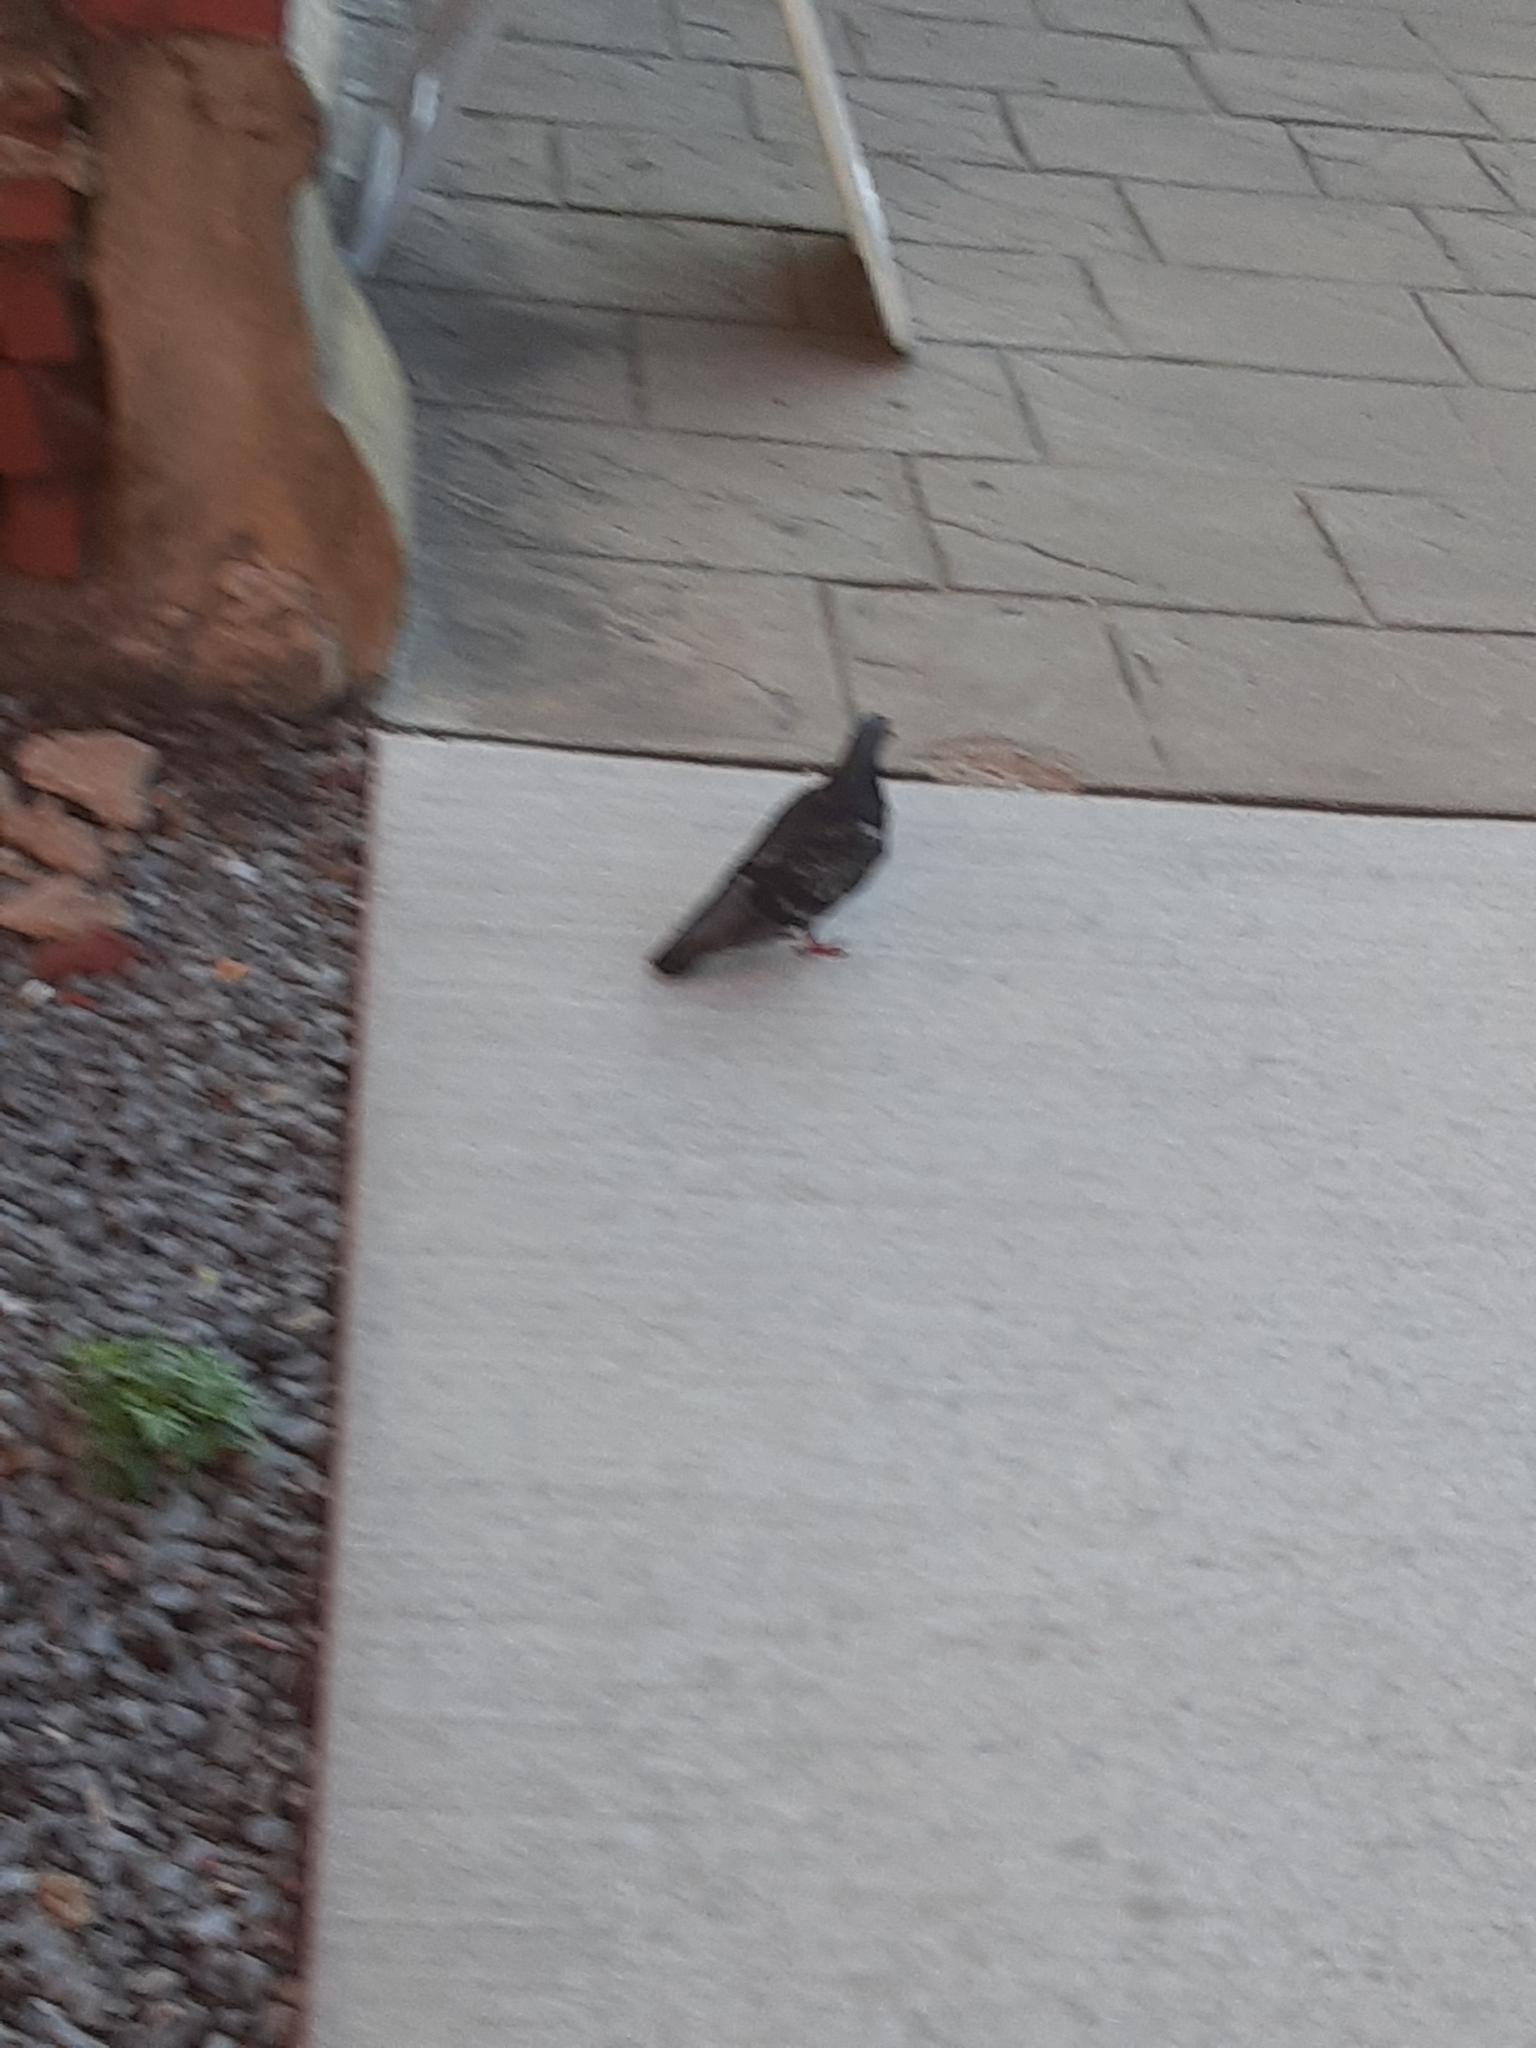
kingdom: Animalia
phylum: Chordata
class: Aves
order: Columbiformes
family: Columbidae
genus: Columba
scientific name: Columba livia
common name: Rock pigeon
